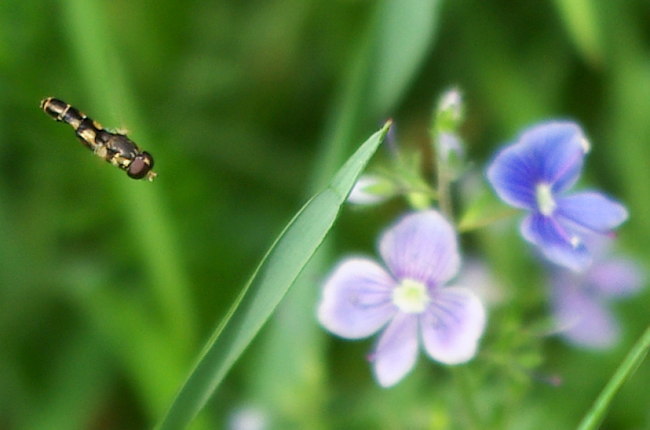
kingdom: Animalia
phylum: Arthropoda
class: Insecta
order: Diptera
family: Syrphidae
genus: Syritta
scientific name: Syritta pipiens
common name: Hover fly
